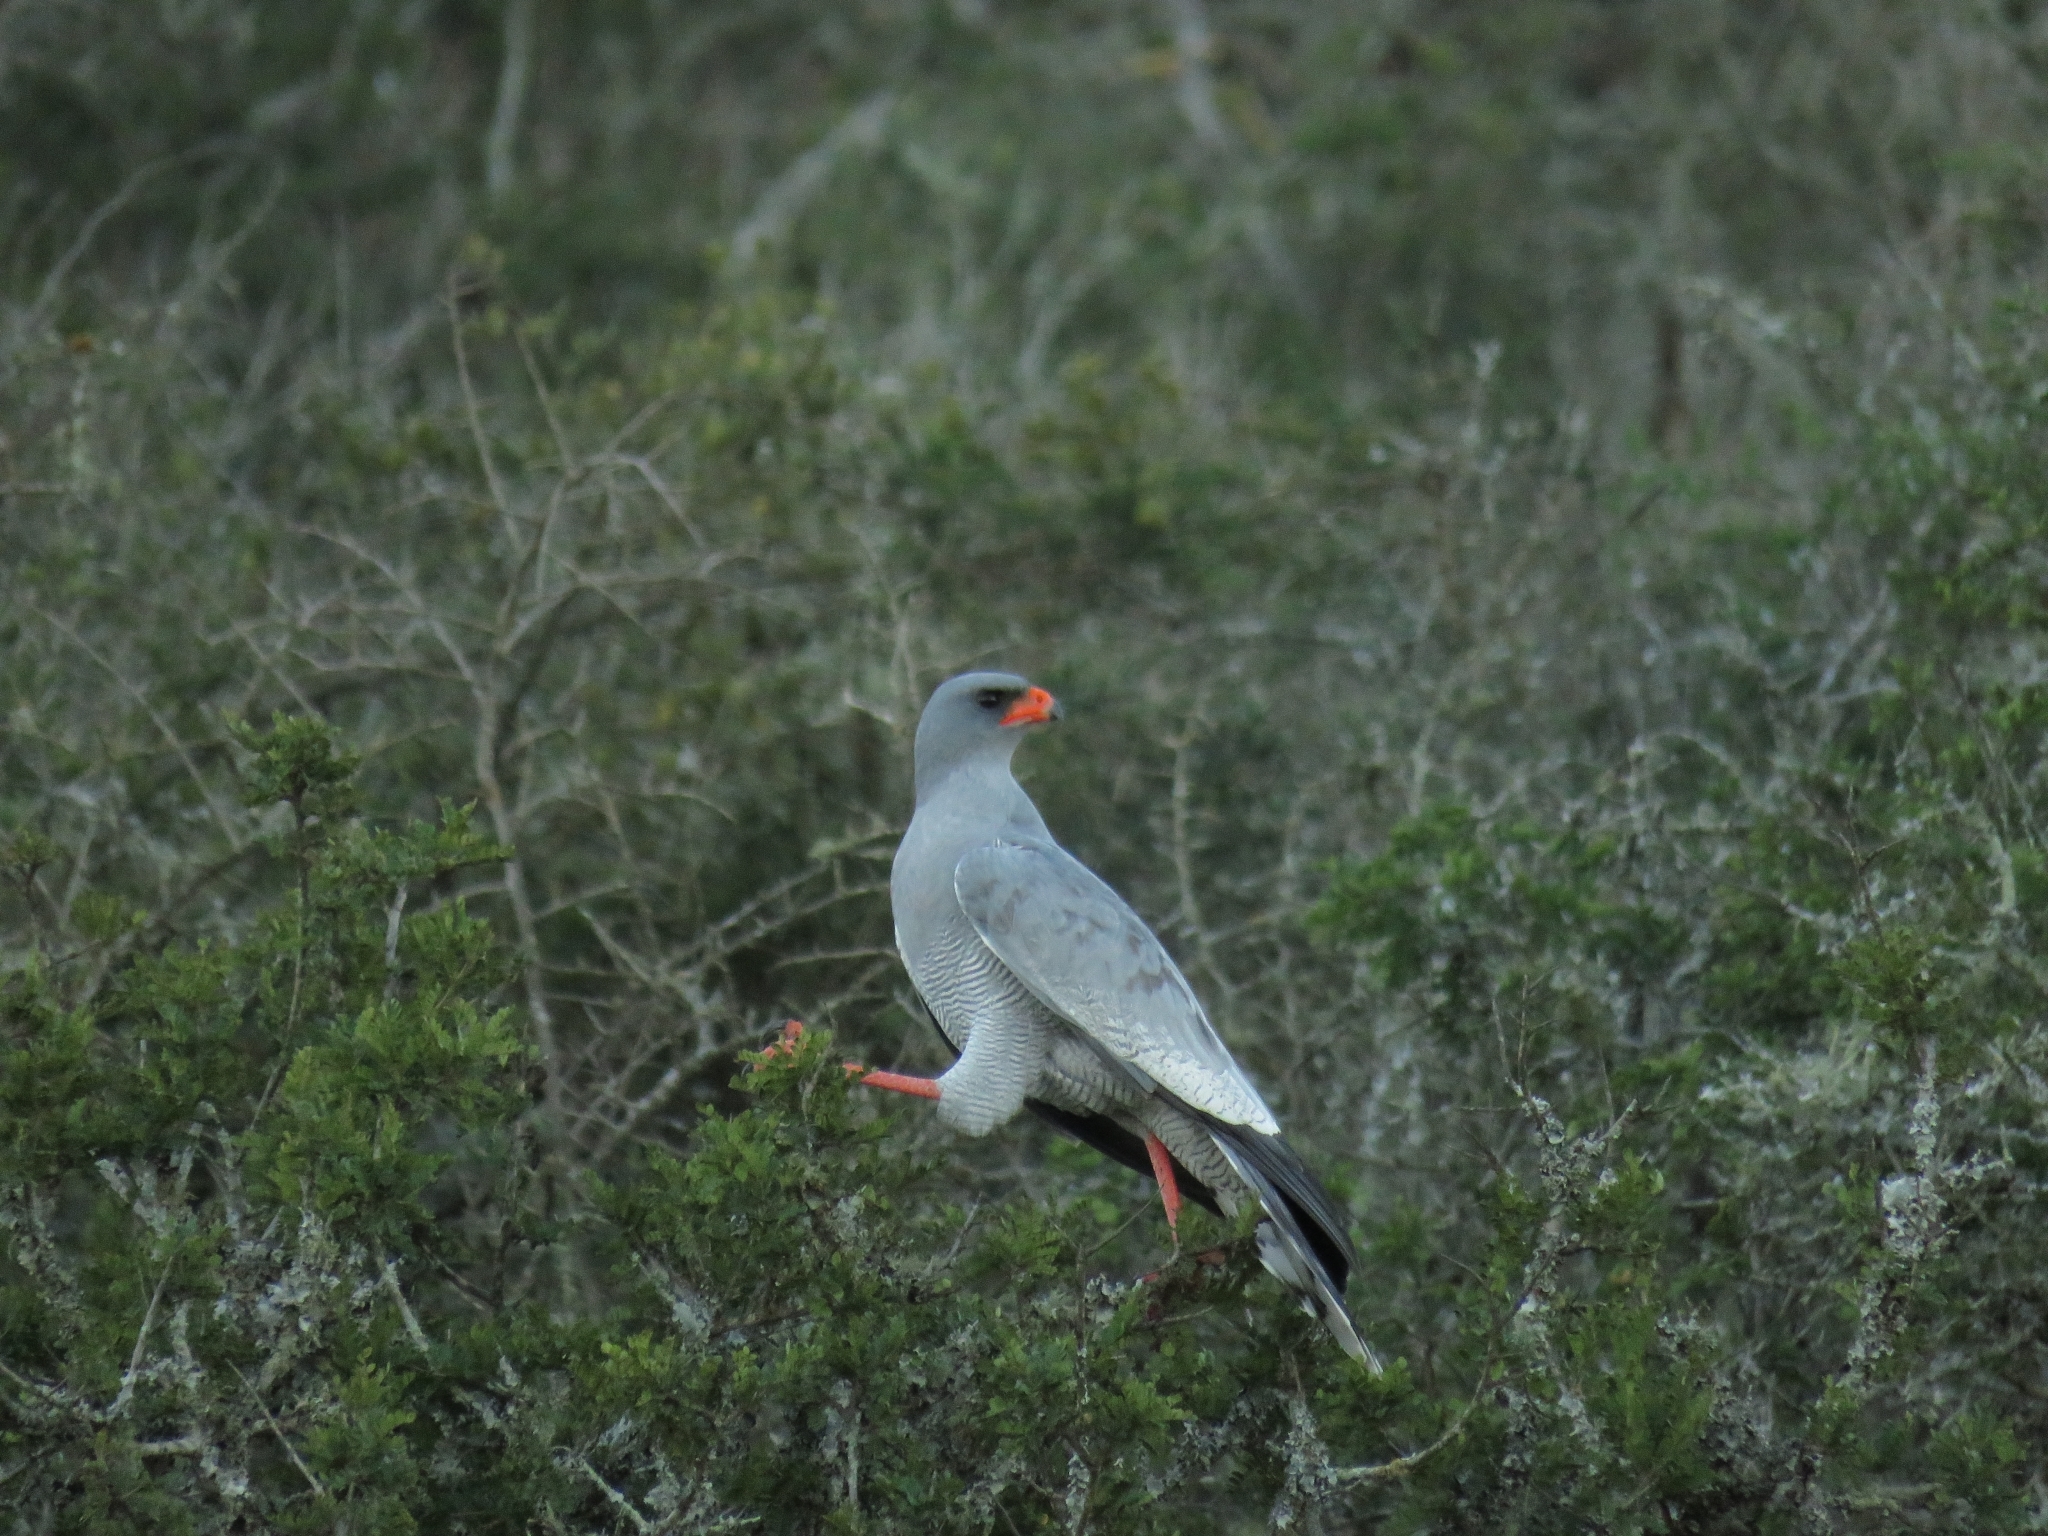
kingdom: Animalia
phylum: Chordata
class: Aves
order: Accipitriformes
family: Accipitridae
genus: Melierax
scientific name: Melierax canorus
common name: Pale chanting-goshawk
